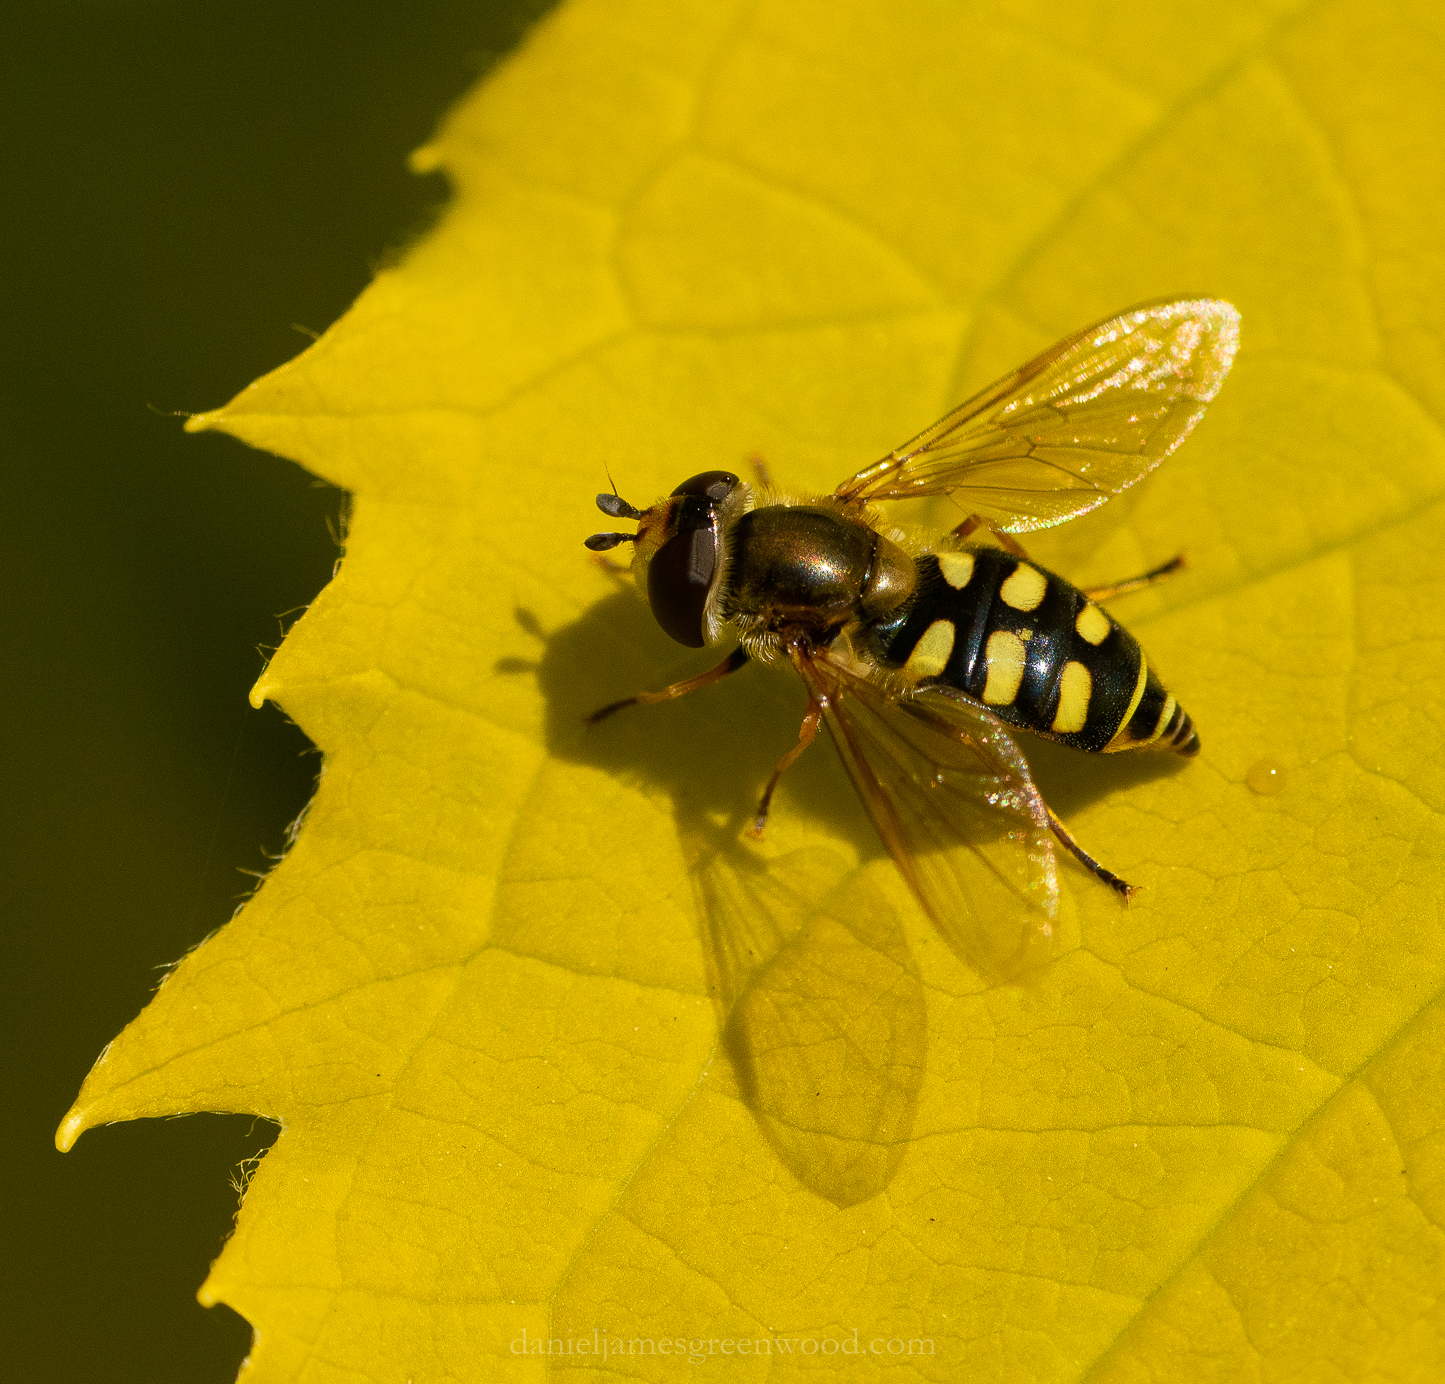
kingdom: Animalia
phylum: Arthropoda
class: Insecta
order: Diptera
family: Syrphidae
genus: Eupeodes
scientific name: Eupeodes
